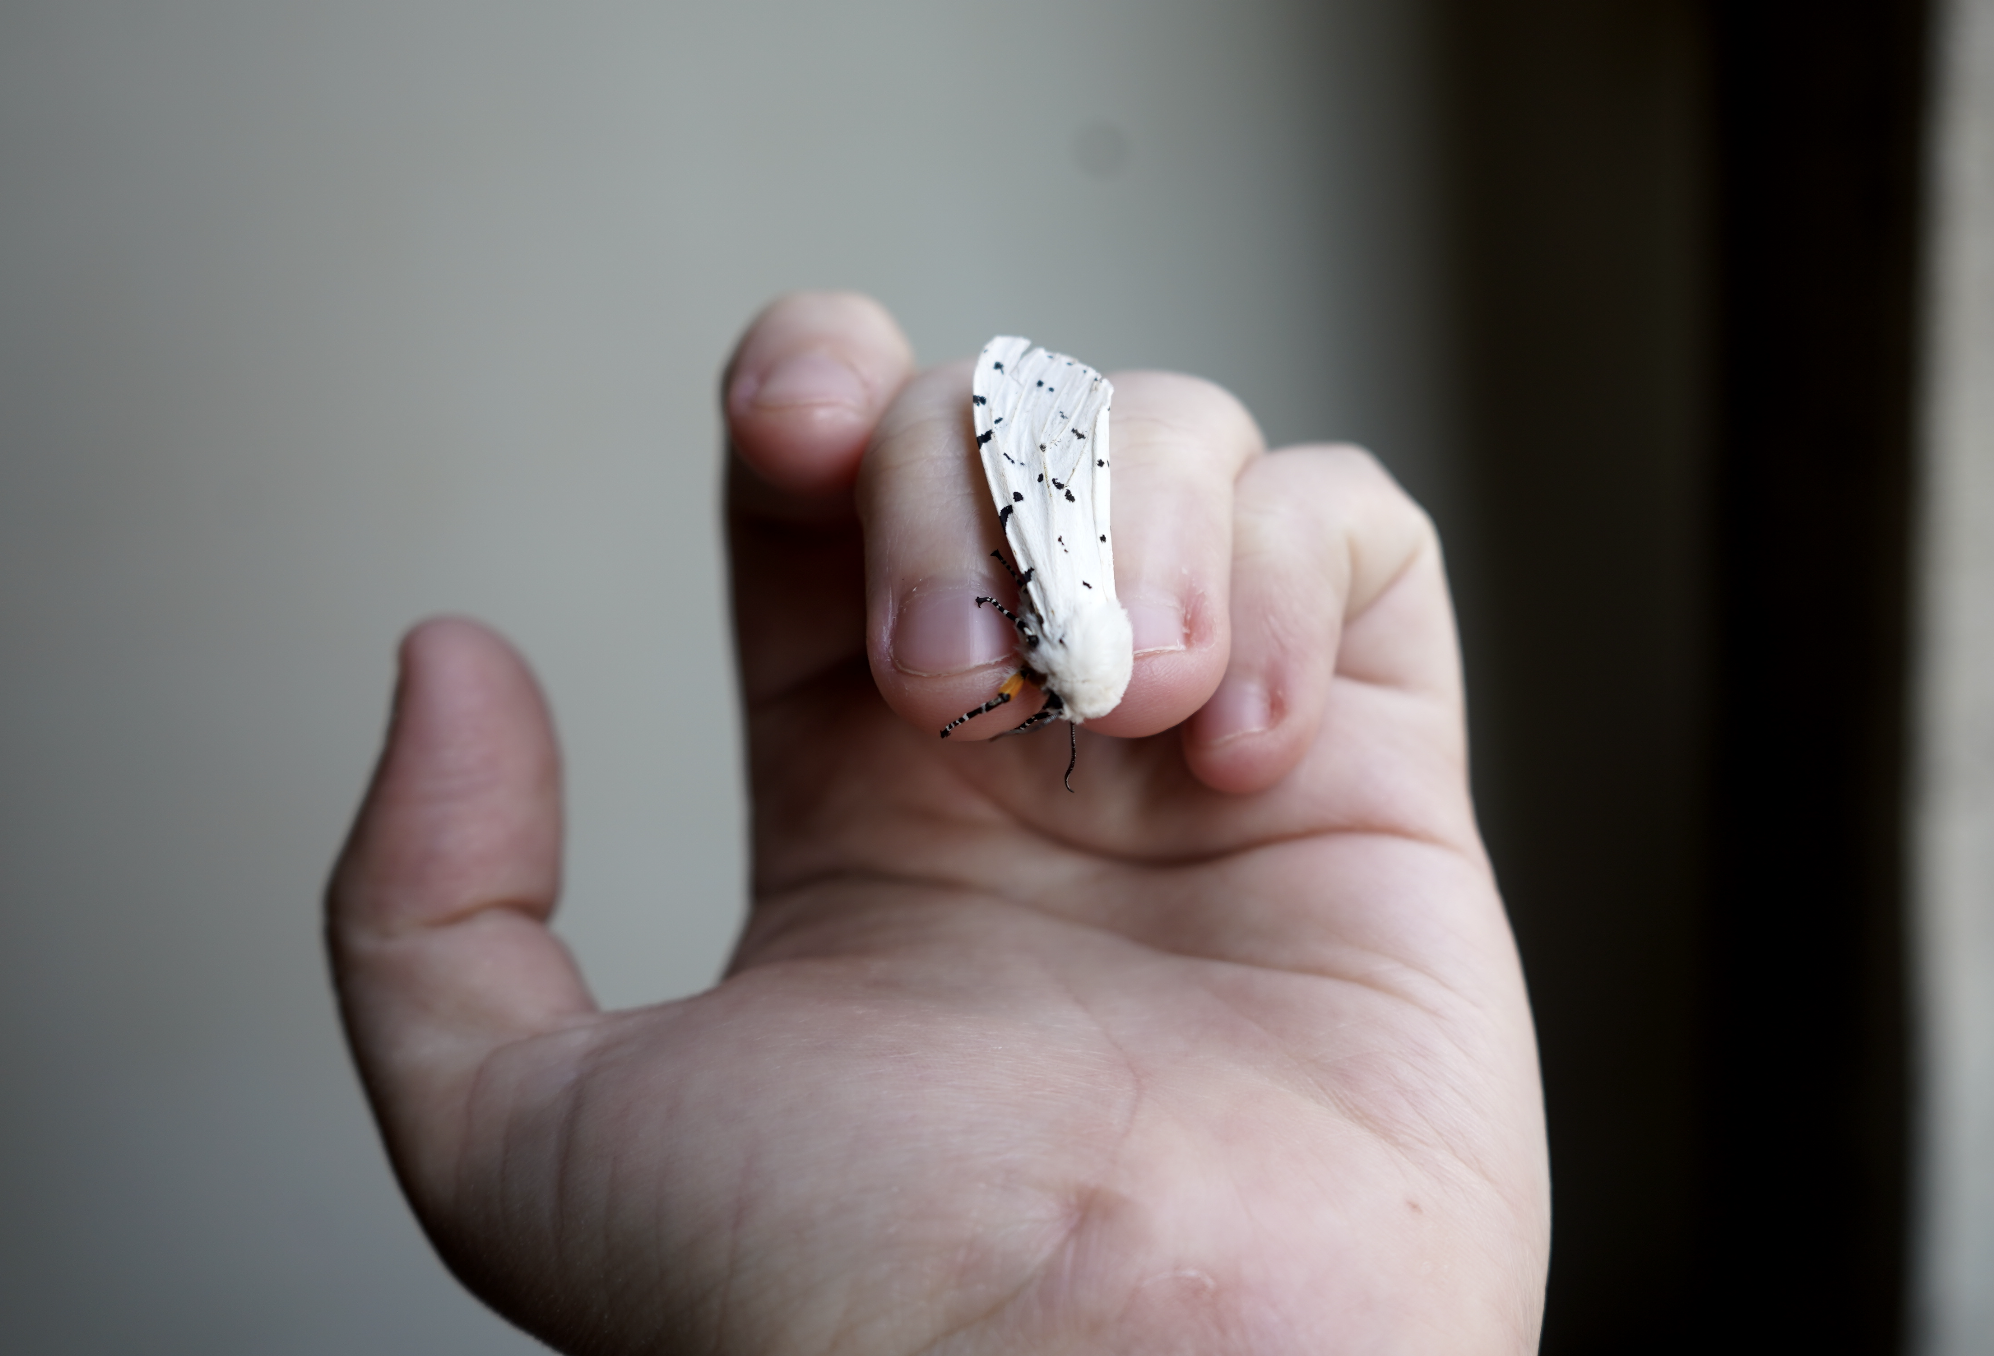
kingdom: Animalia
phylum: Arthropoda
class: Insecta
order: Lepidoptera
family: Erebidae
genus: Estigmene
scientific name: Estigmene acrea
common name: Salt marsh moth
